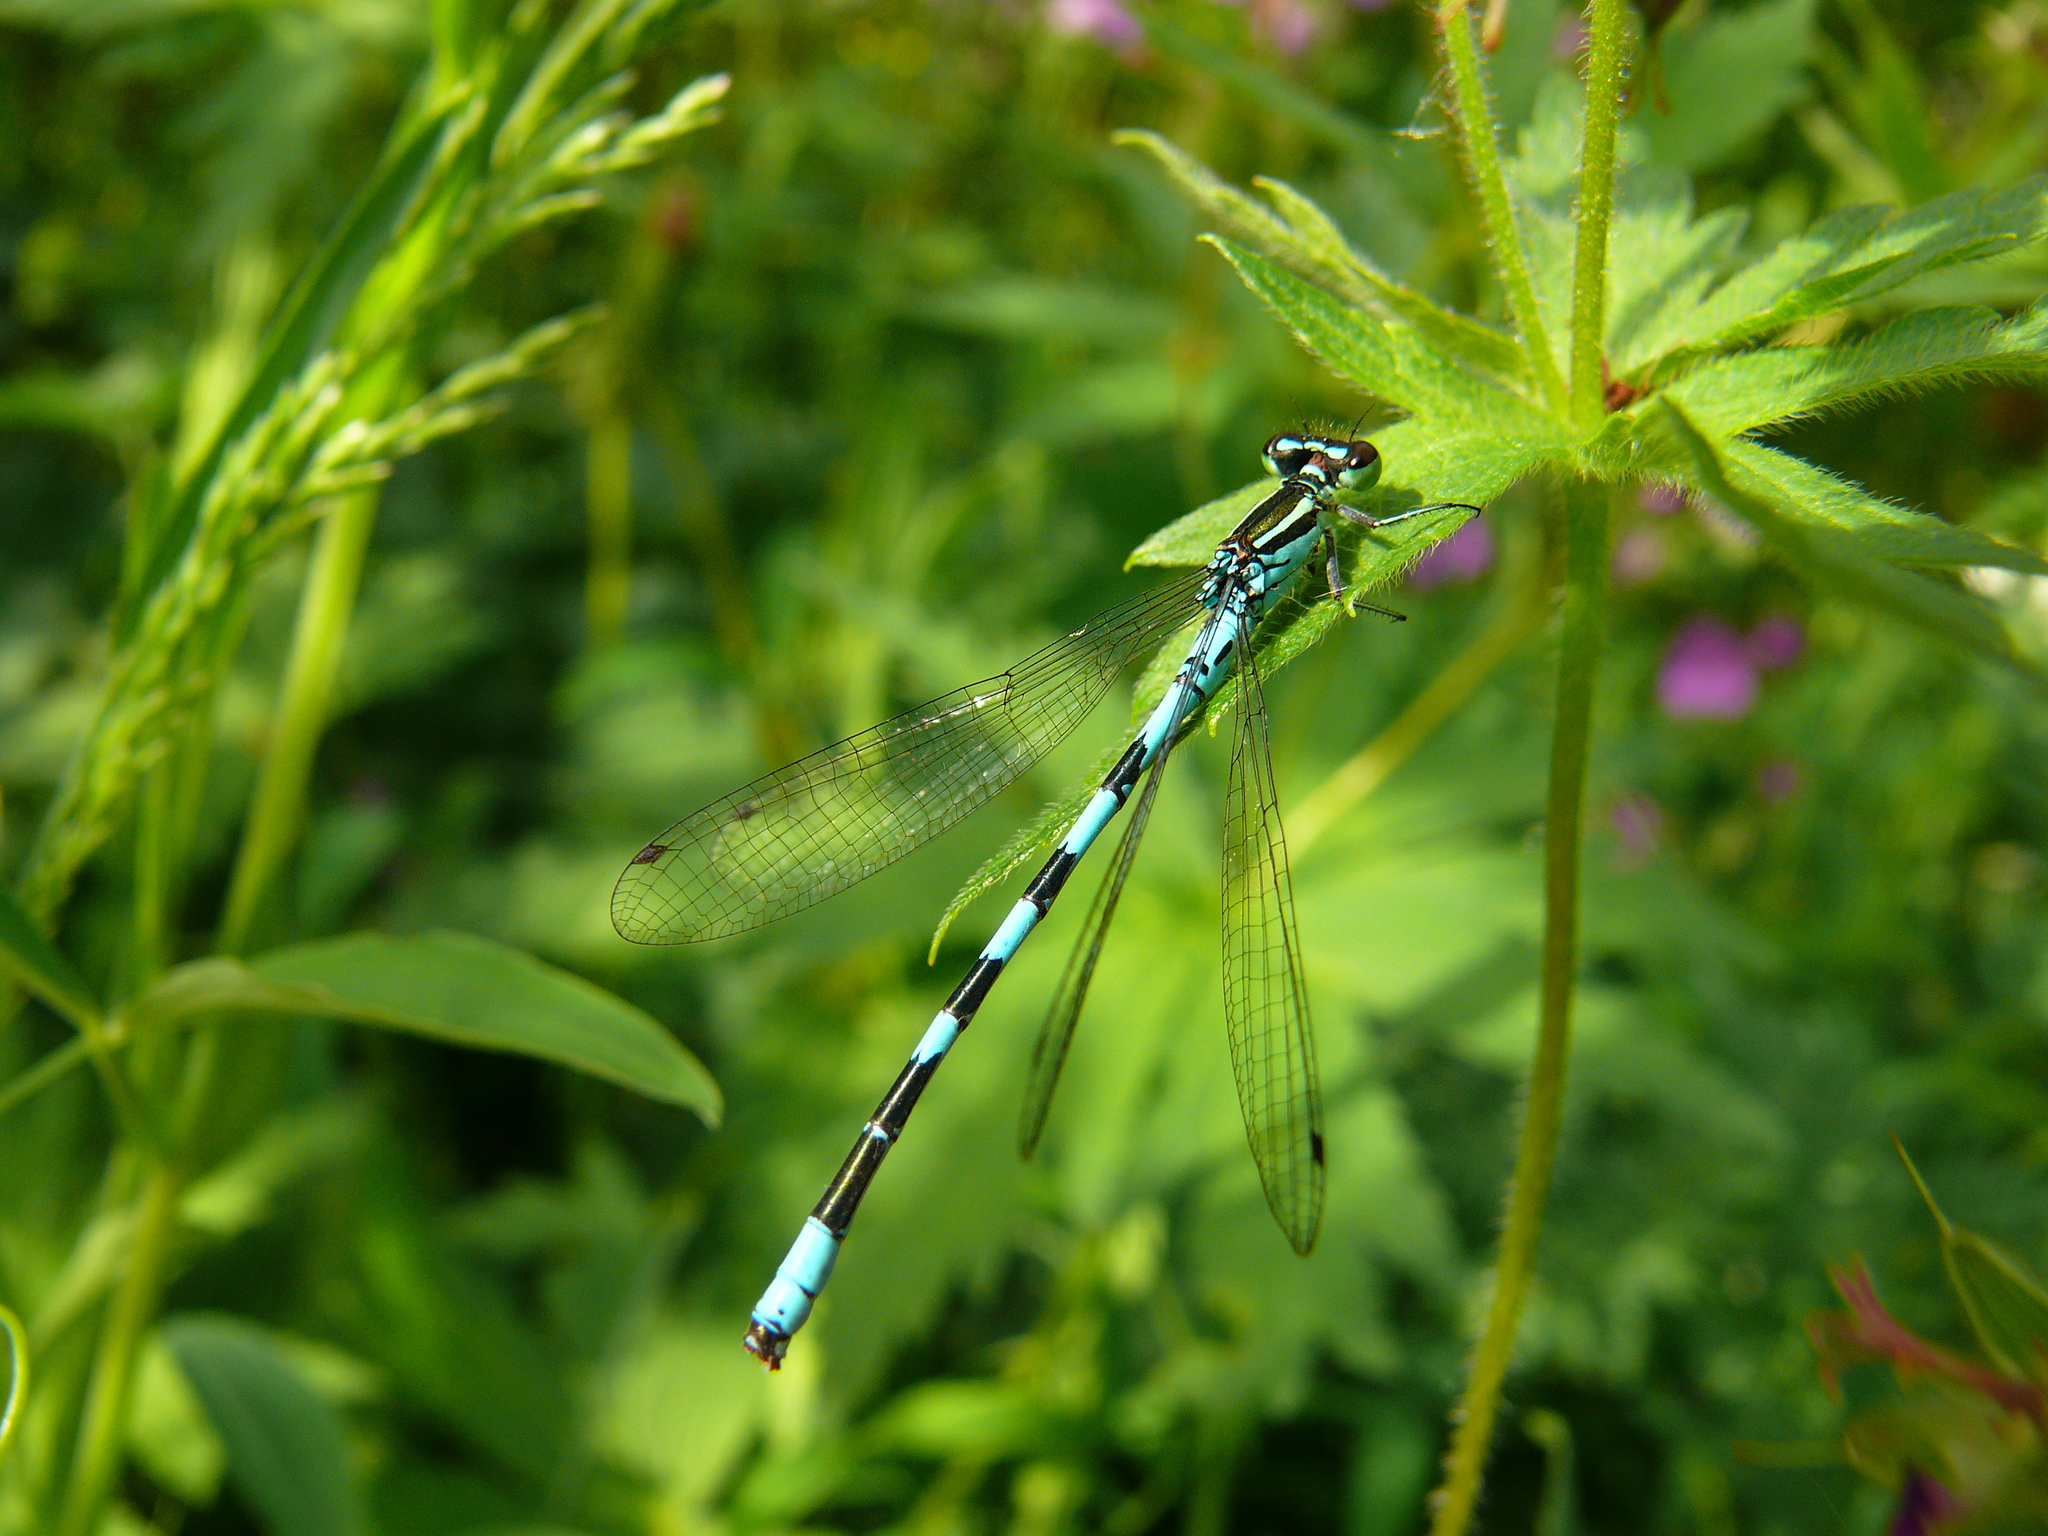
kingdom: Animalia
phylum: Arthropoda
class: Insecta
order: Odonata
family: Coenagrionidae
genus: Coenagrion
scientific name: Coenagrion hastulatum
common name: Spearhead bluet
